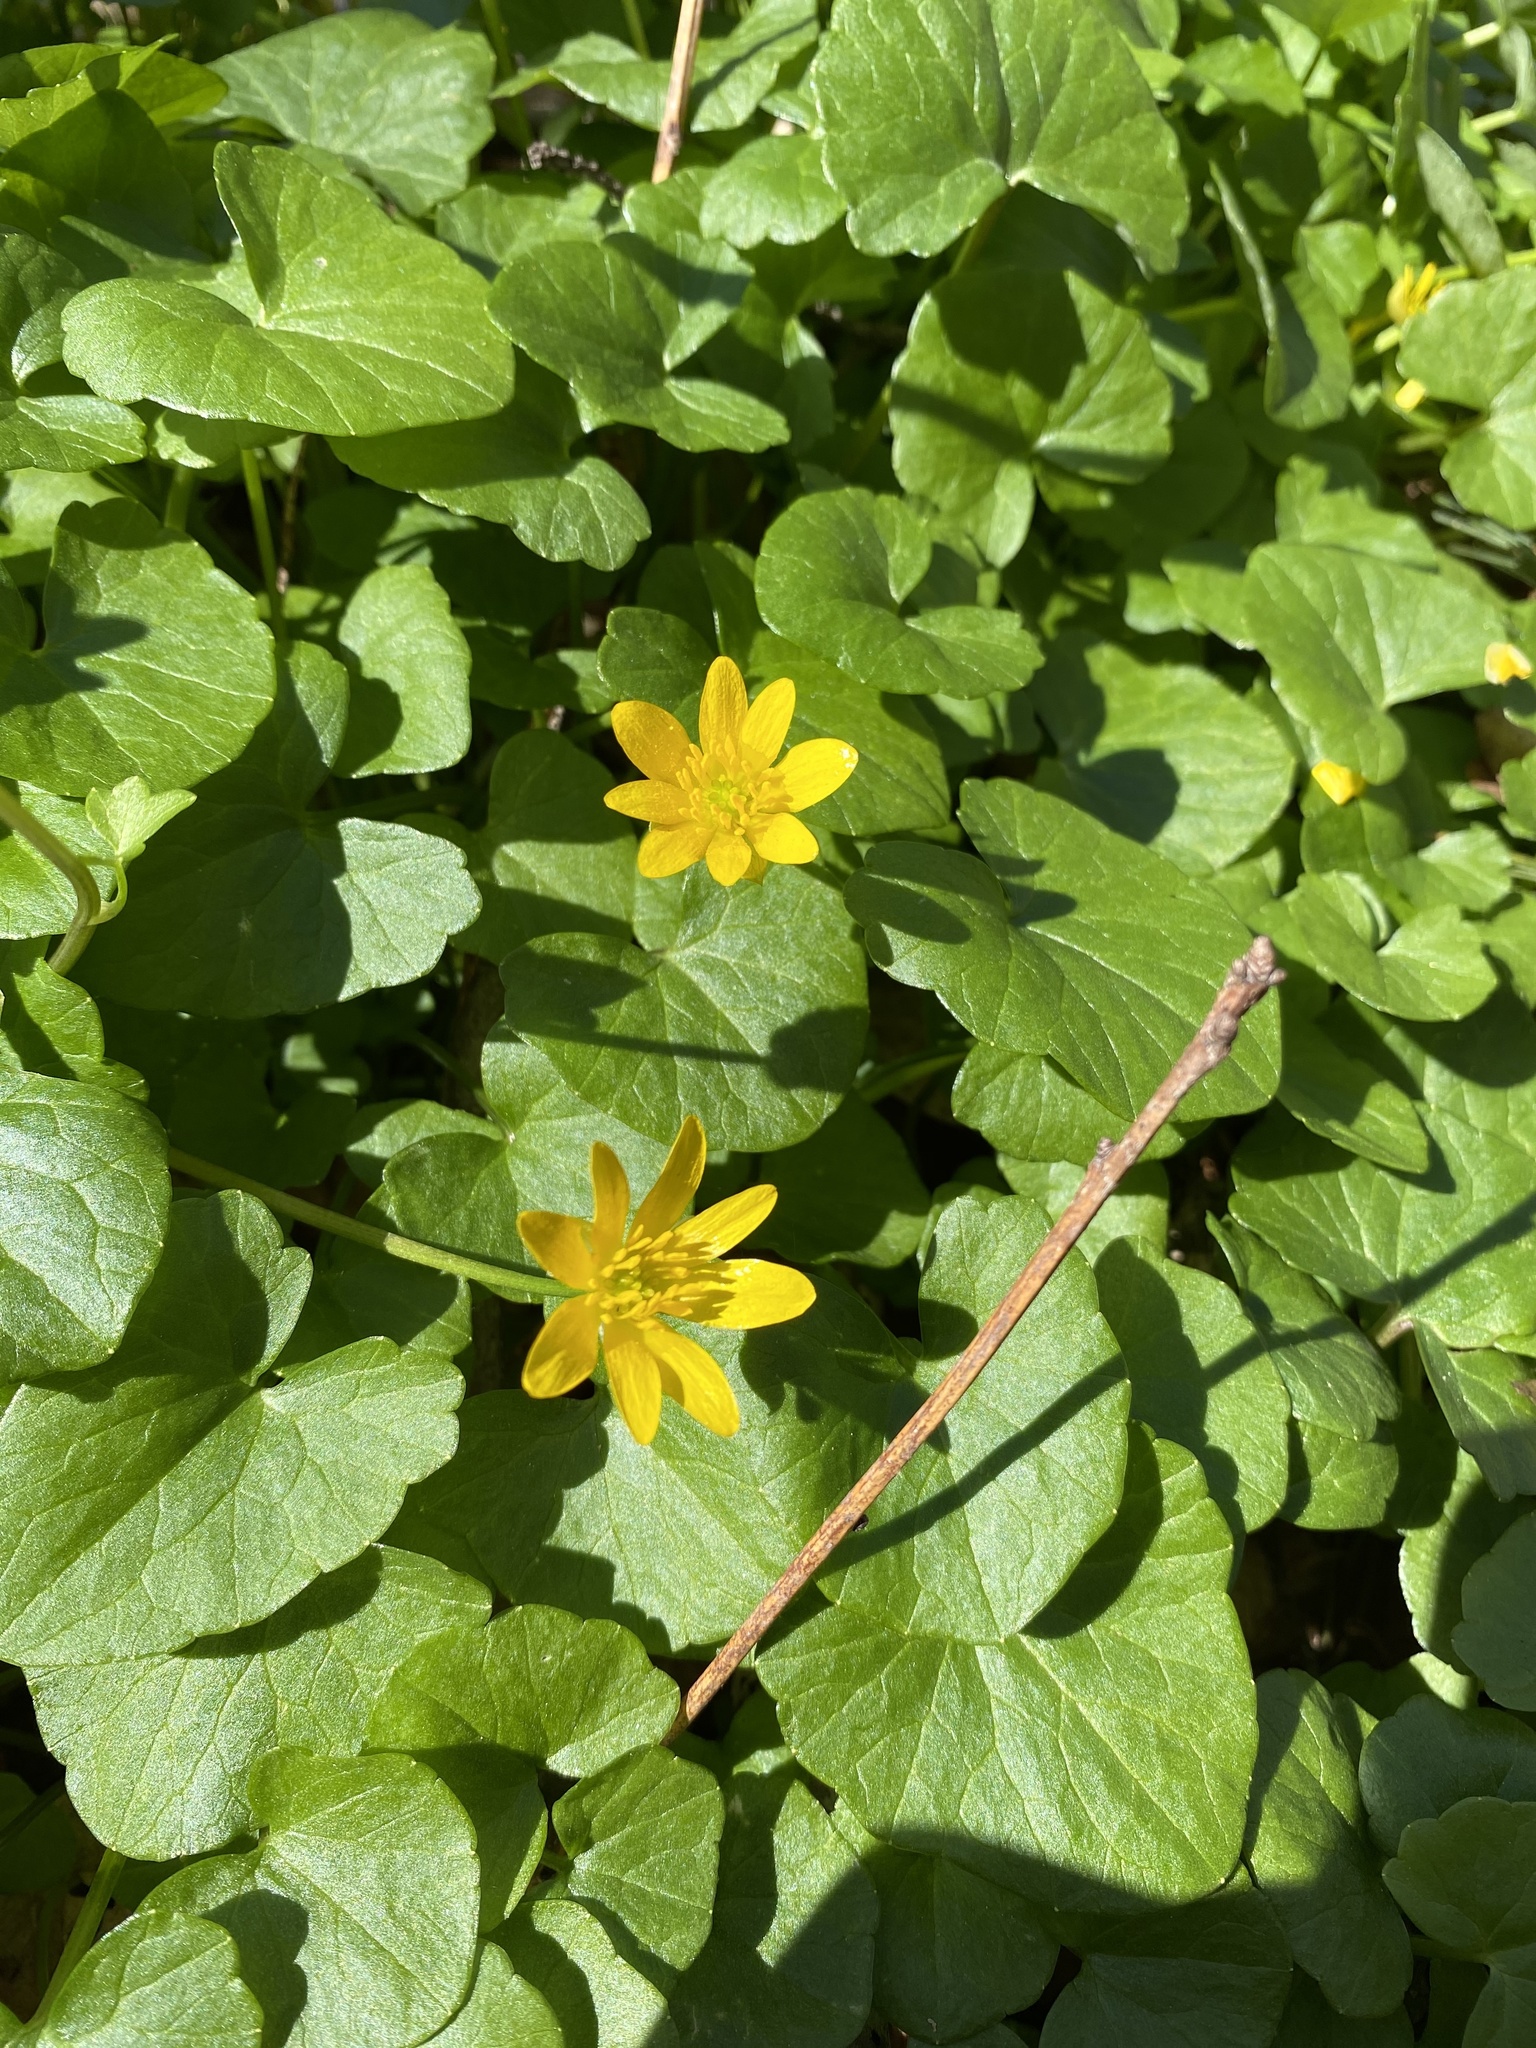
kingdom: Plantae
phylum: Tracheophyta
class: Magnoliopsida
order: Ranunculales
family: Ranunculaceae
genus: Ficaria
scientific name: Ficaria verna
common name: Lesser celandine
